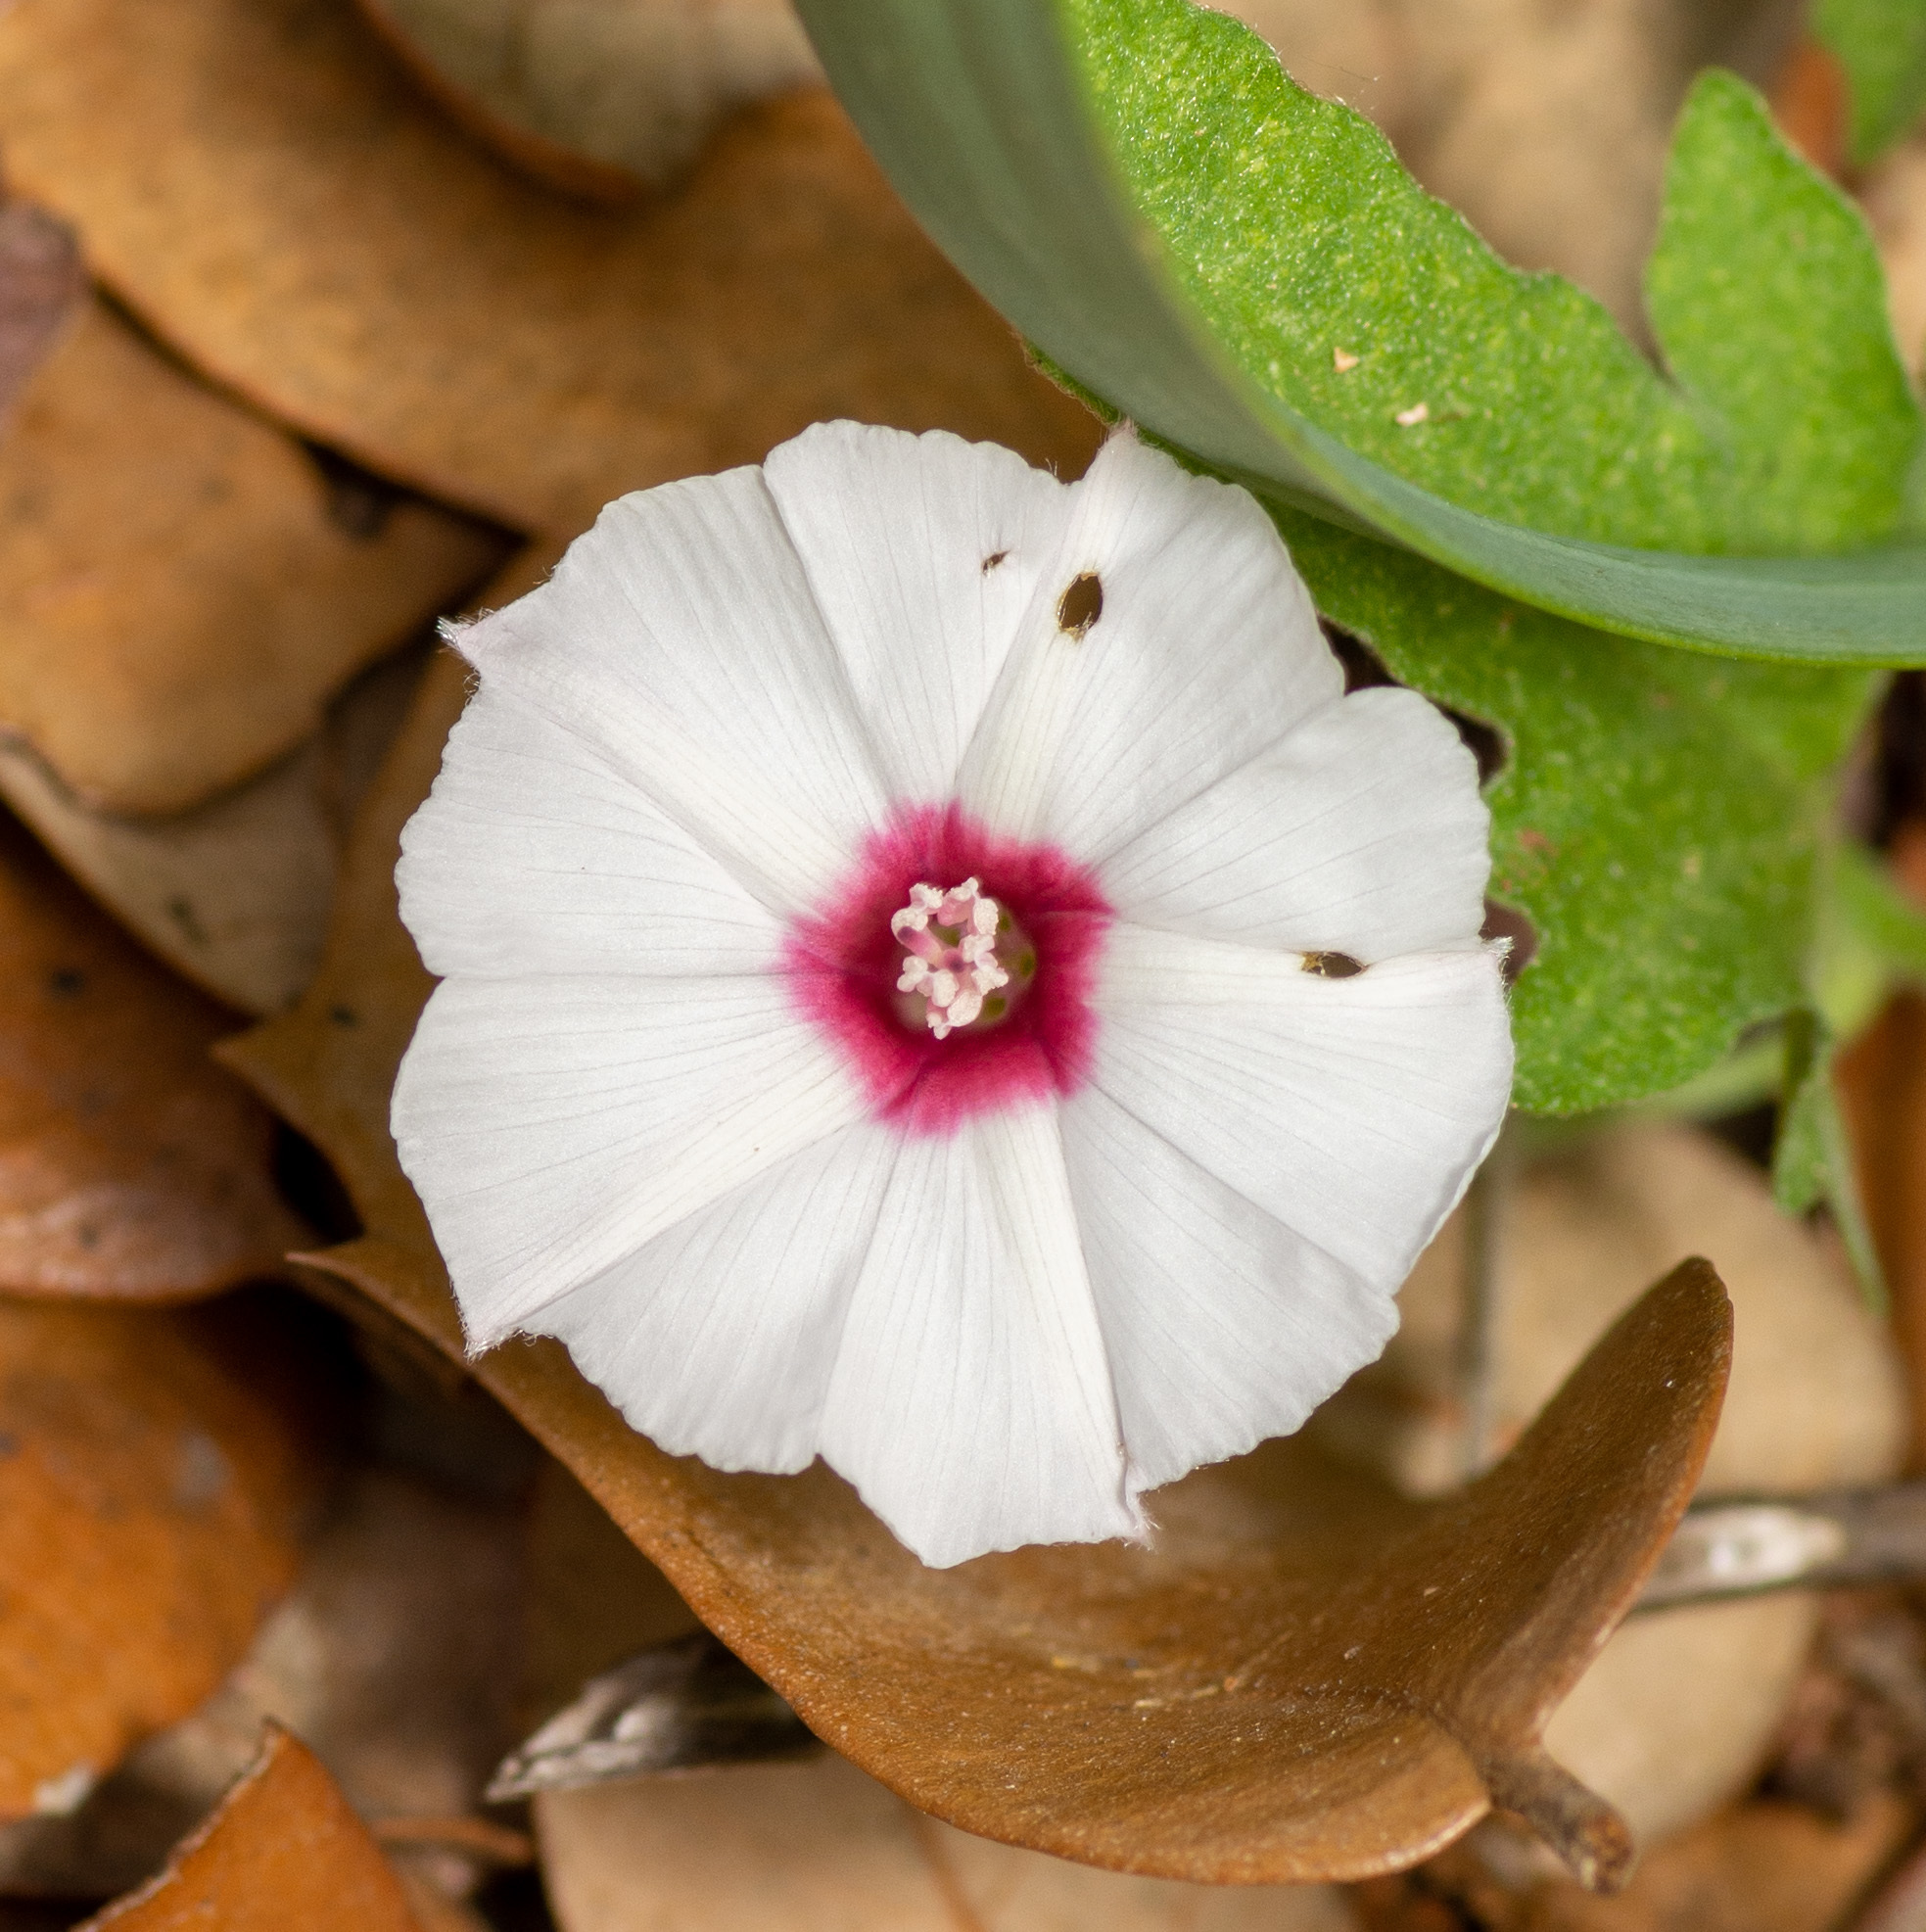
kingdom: Plantae
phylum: Tracheophyta
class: Magnoliopsida
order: Solanales
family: Convolvulaceae
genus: Convolvulus
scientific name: Convolvulus equitans
